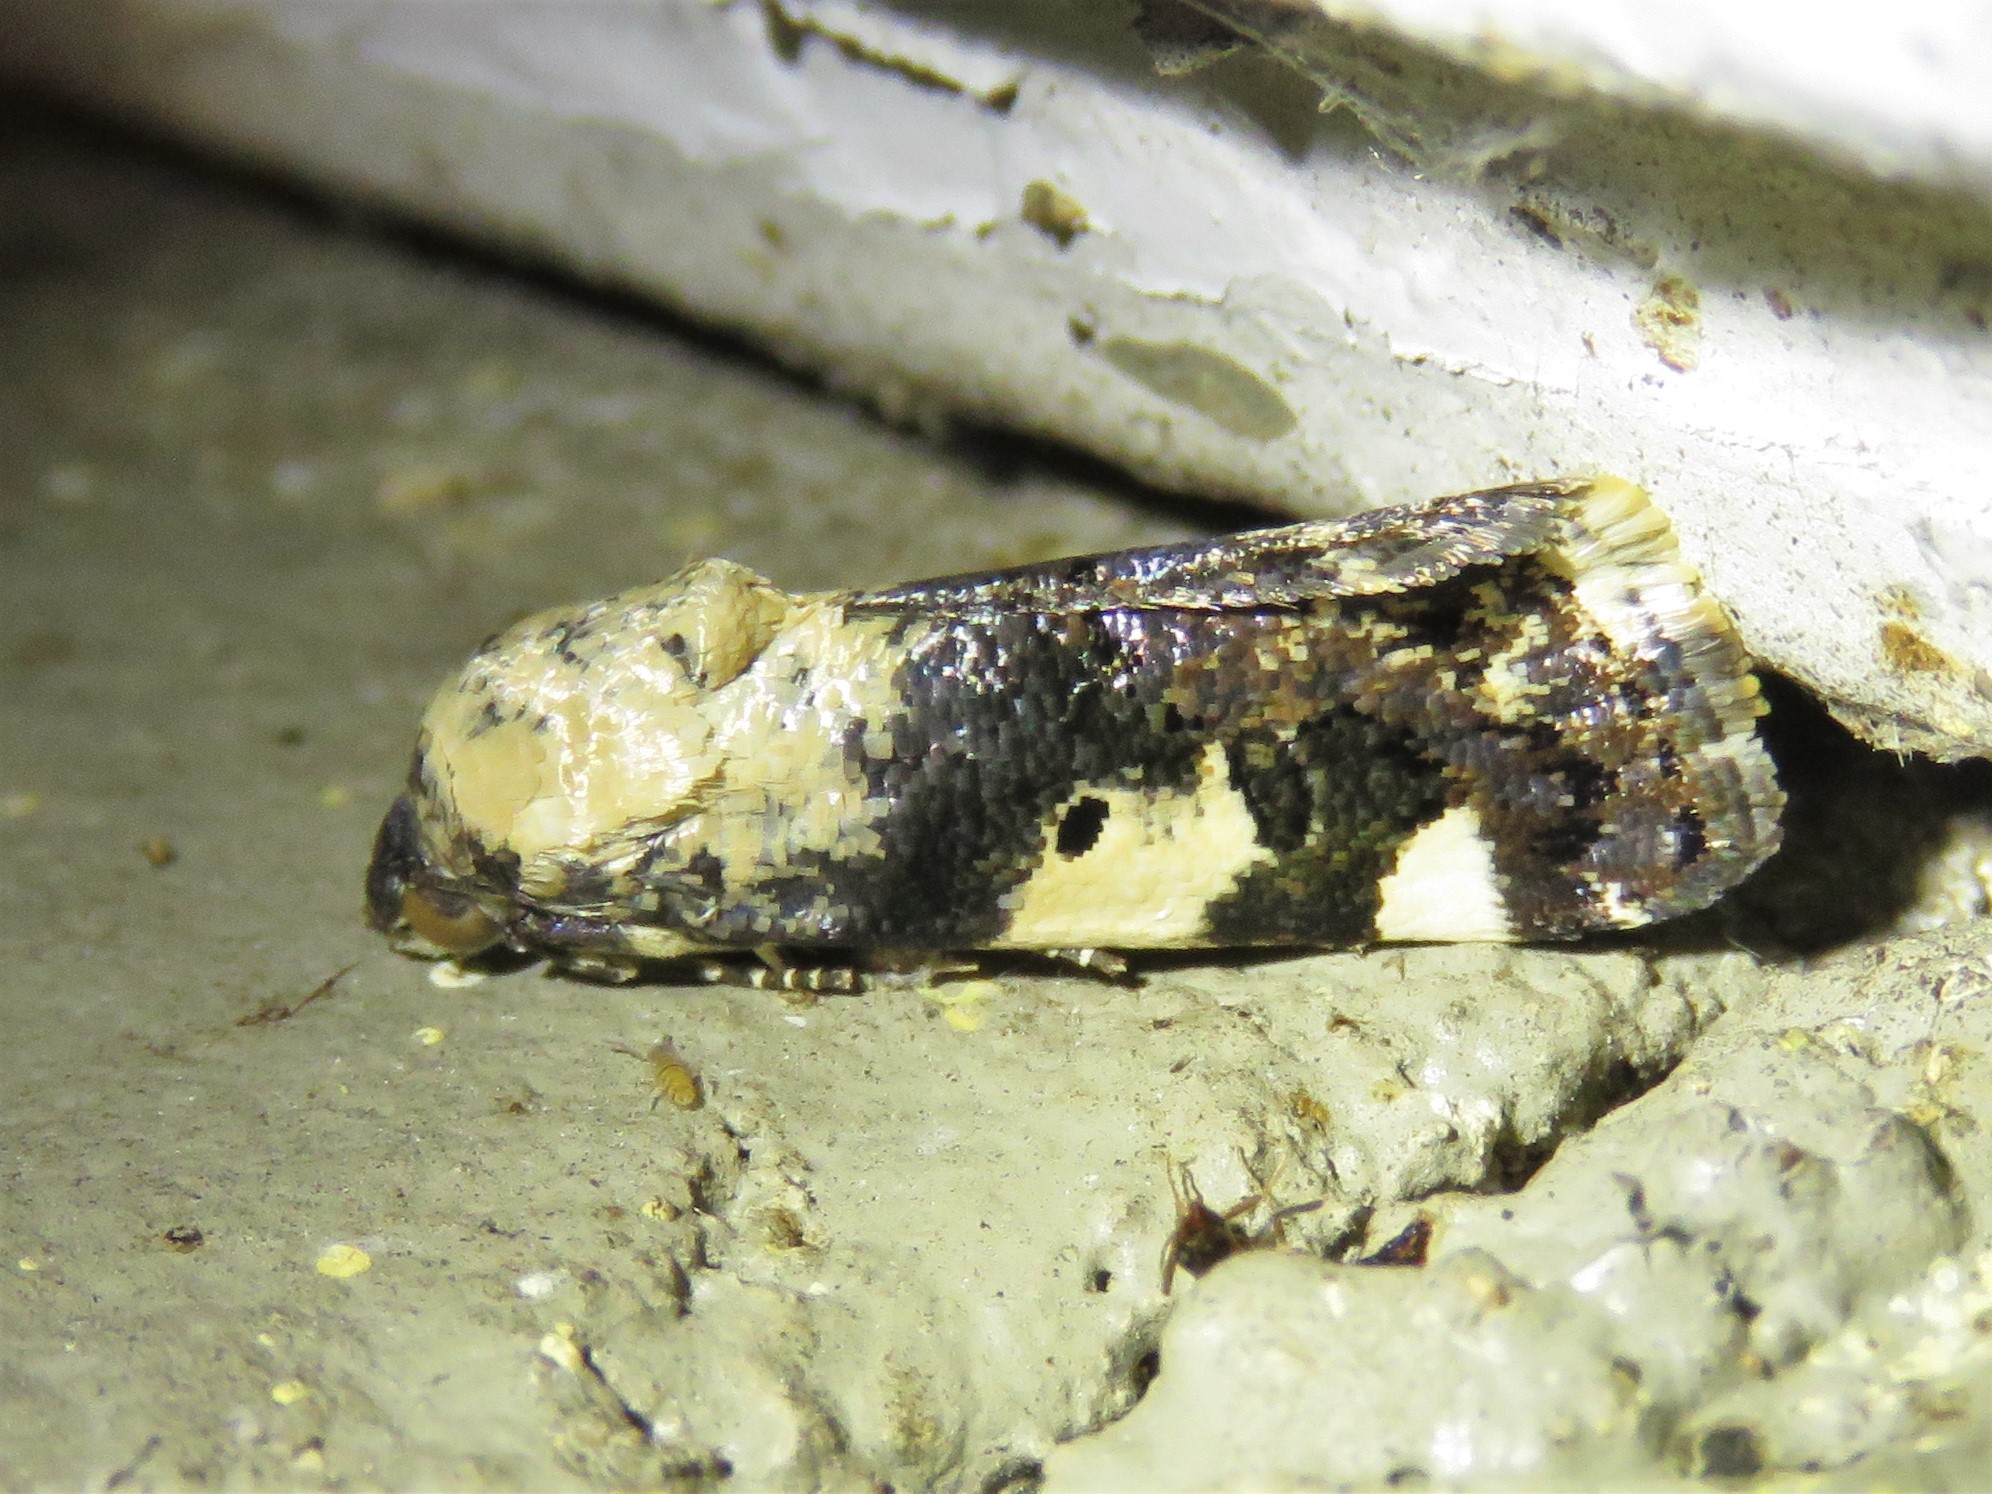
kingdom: Animalia
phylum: Arthropoda
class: Insecta
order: Lepidoptera
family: Noctuidae
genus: Acontia
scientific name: Acontia aprica
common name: Nun
